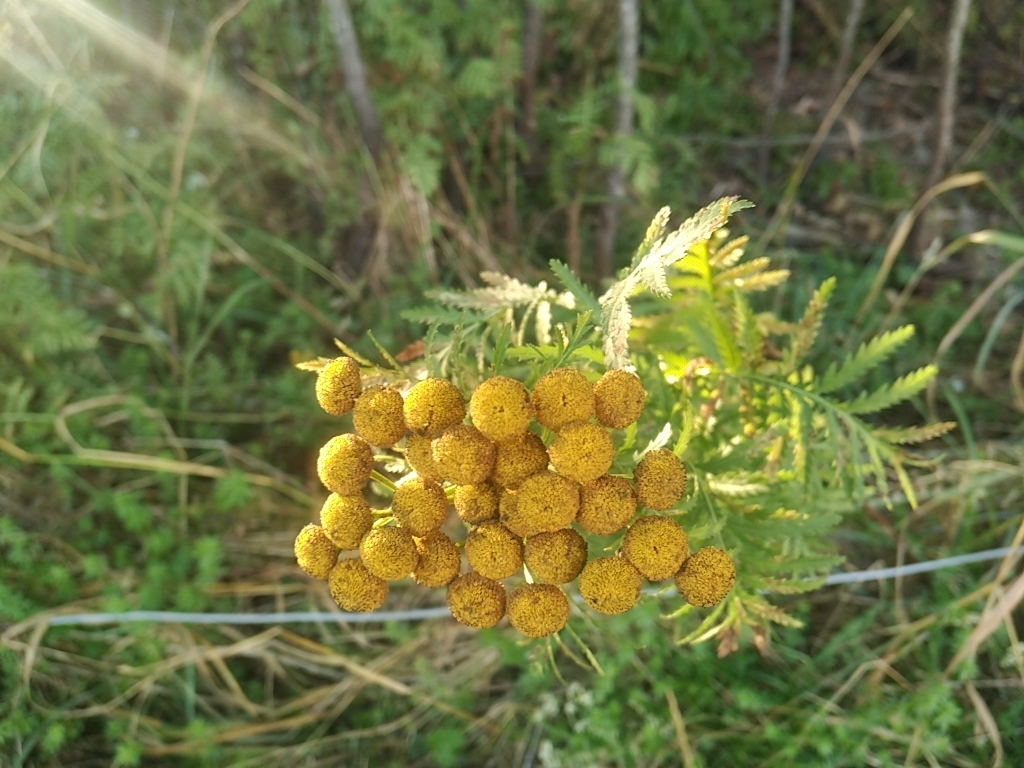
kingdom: Plantae
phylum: Tracheophyta
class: Magnoliopsida
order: Asterales
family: Asteraceae
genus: Tanacetum
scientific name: Tanacetum vulgare
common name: Common tansy
